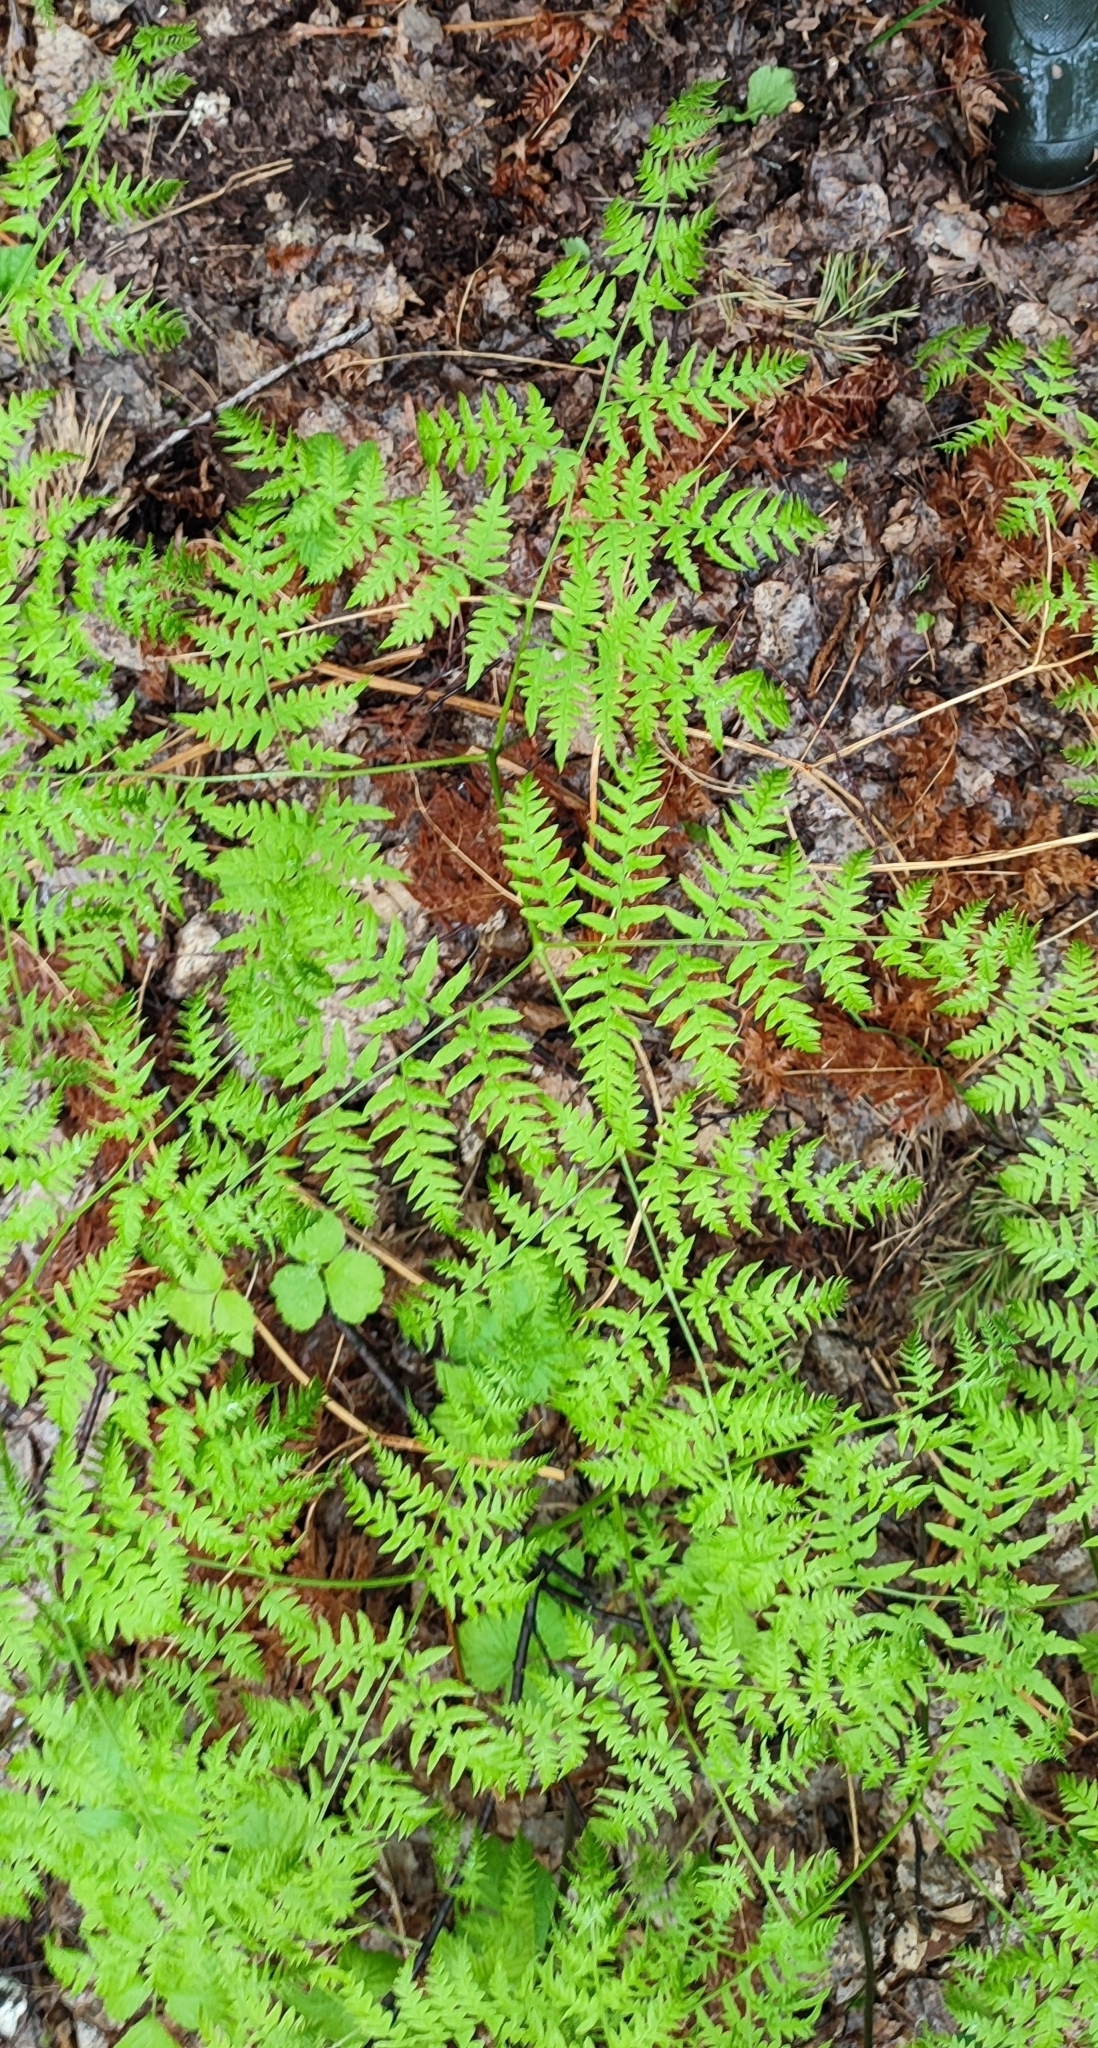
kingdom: Plantae
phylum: Tracheophyta
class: Polypodiopsida
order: Polypodiales
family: Dennstaedtiaceae
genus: Pteridium
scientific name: Pteridium aquilinum
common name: Bracken
